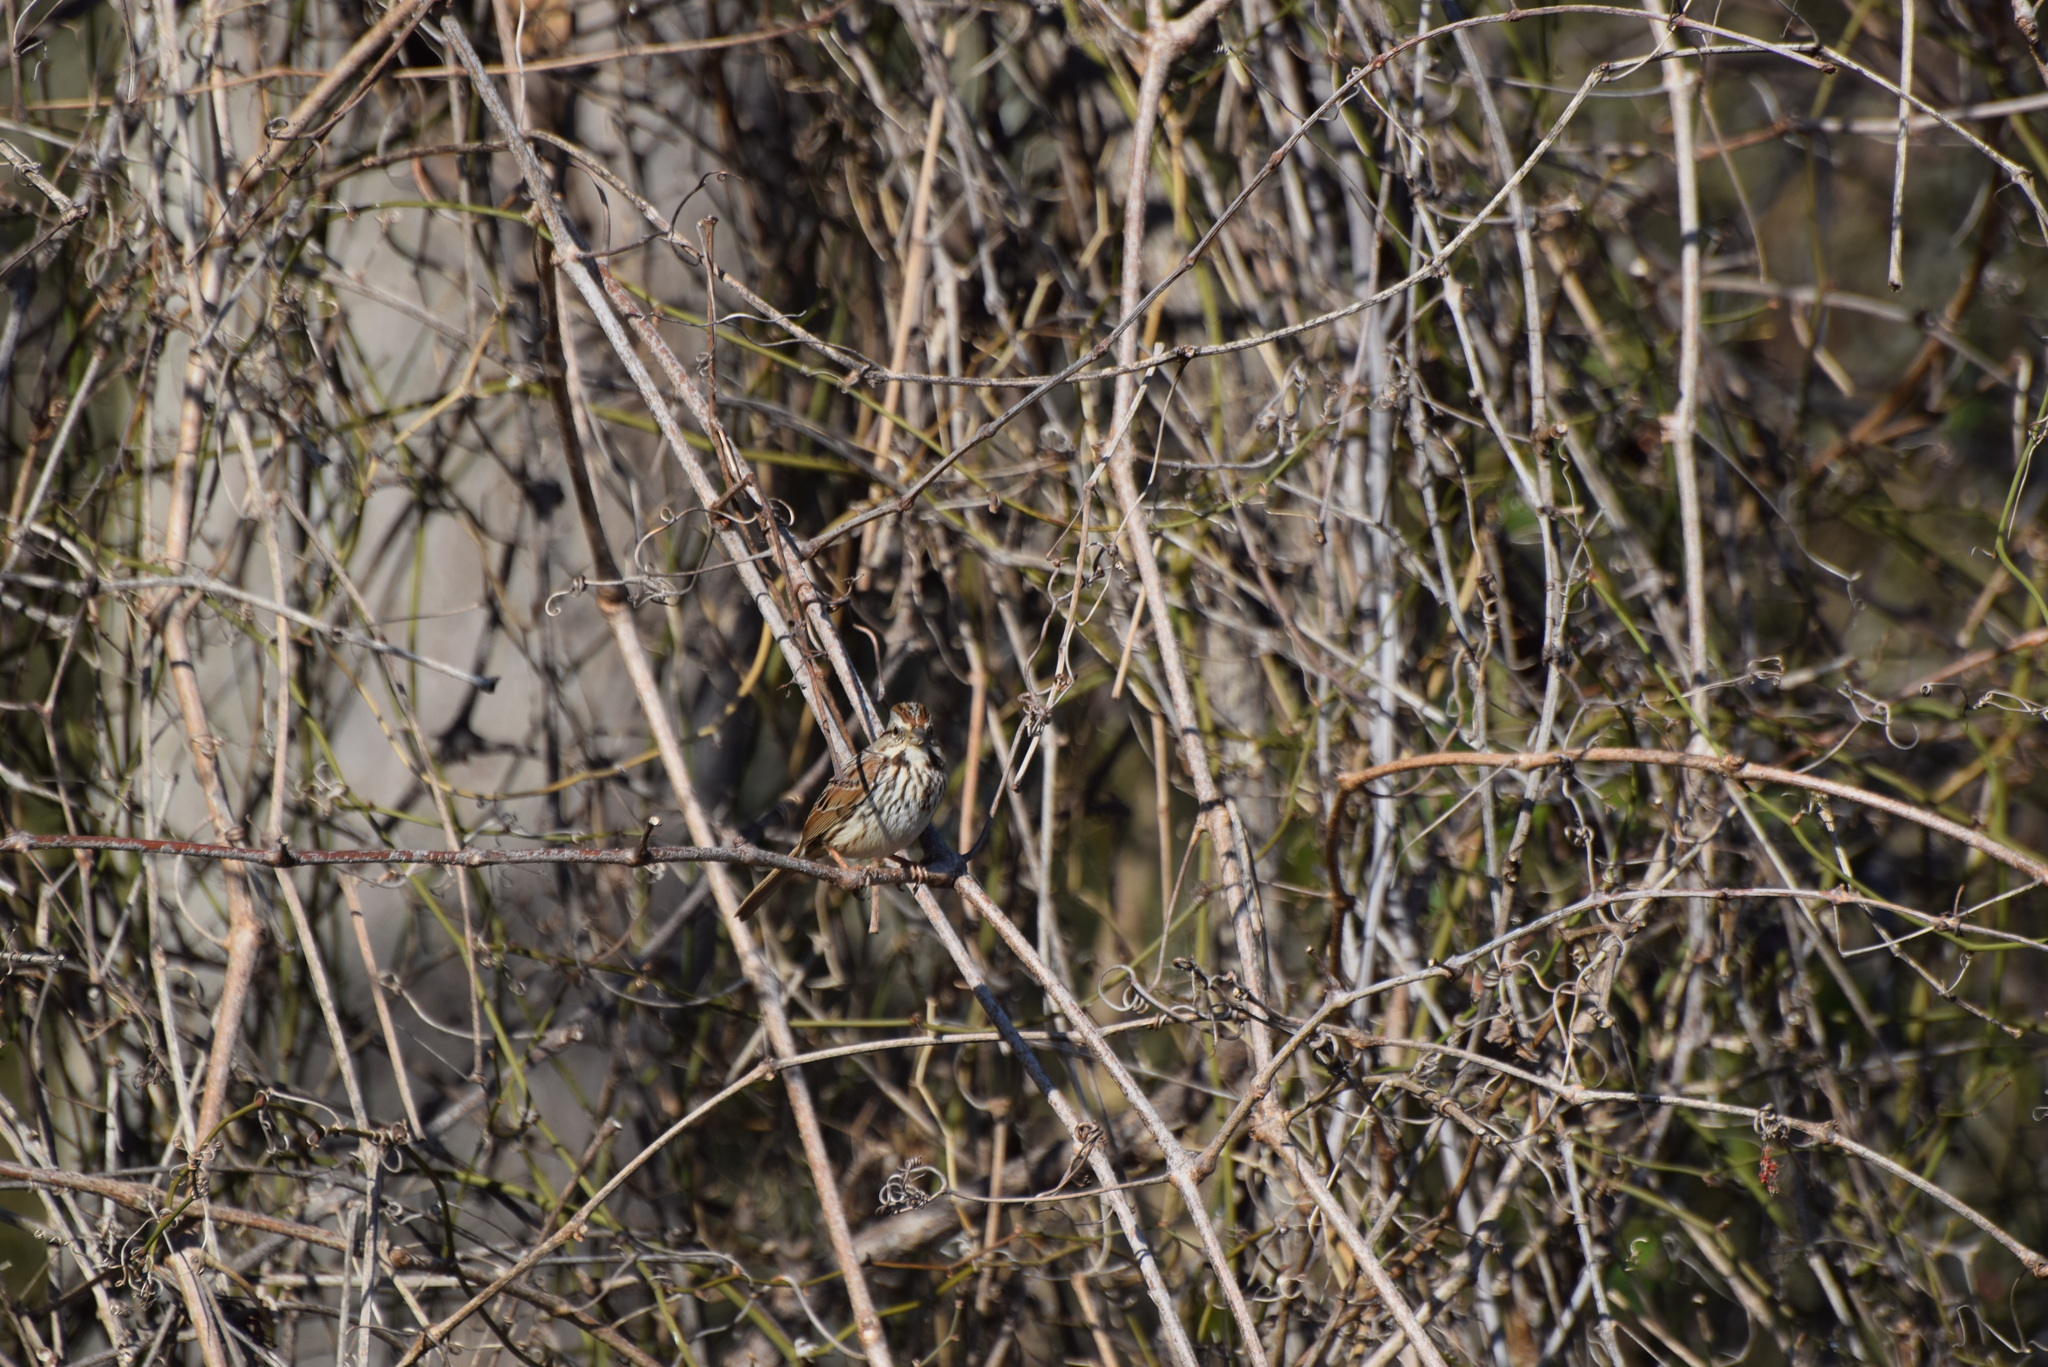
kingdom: Animalia
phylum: Chordata
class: Aves
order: Passeriformes
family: Passerellidae
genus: Melospiza
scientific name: Melospiza melodia
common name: Song sparrow
